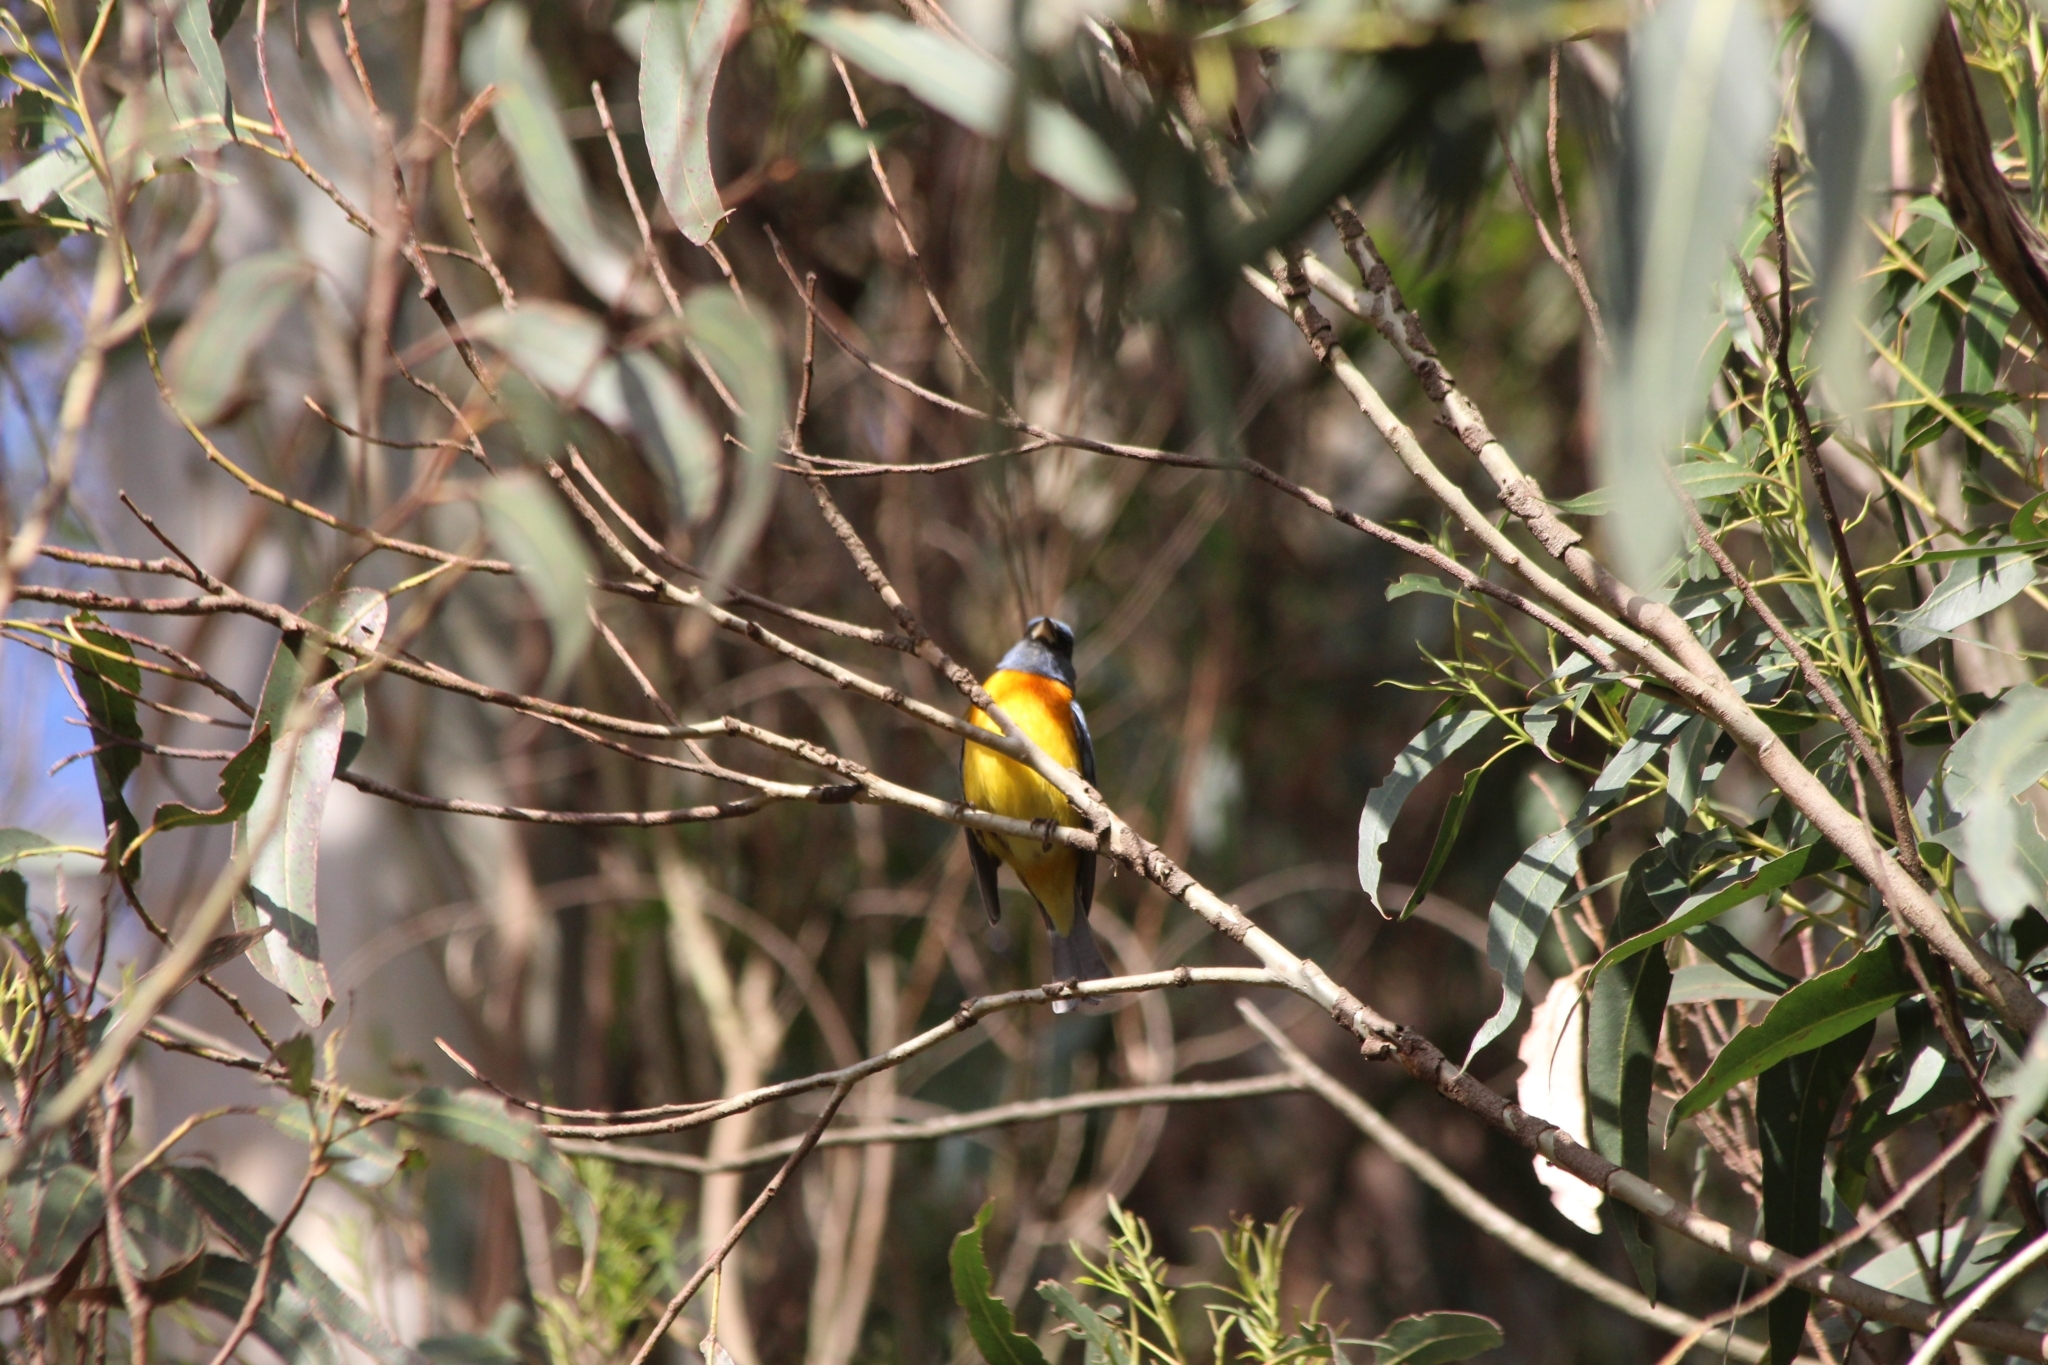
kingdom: Animalia
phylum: Chordata
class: Aves
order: Passeriformes
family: Thraupidae
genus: Rauenia
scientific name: Rauenia bonariensis
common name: Blue-and-yellow tanager
